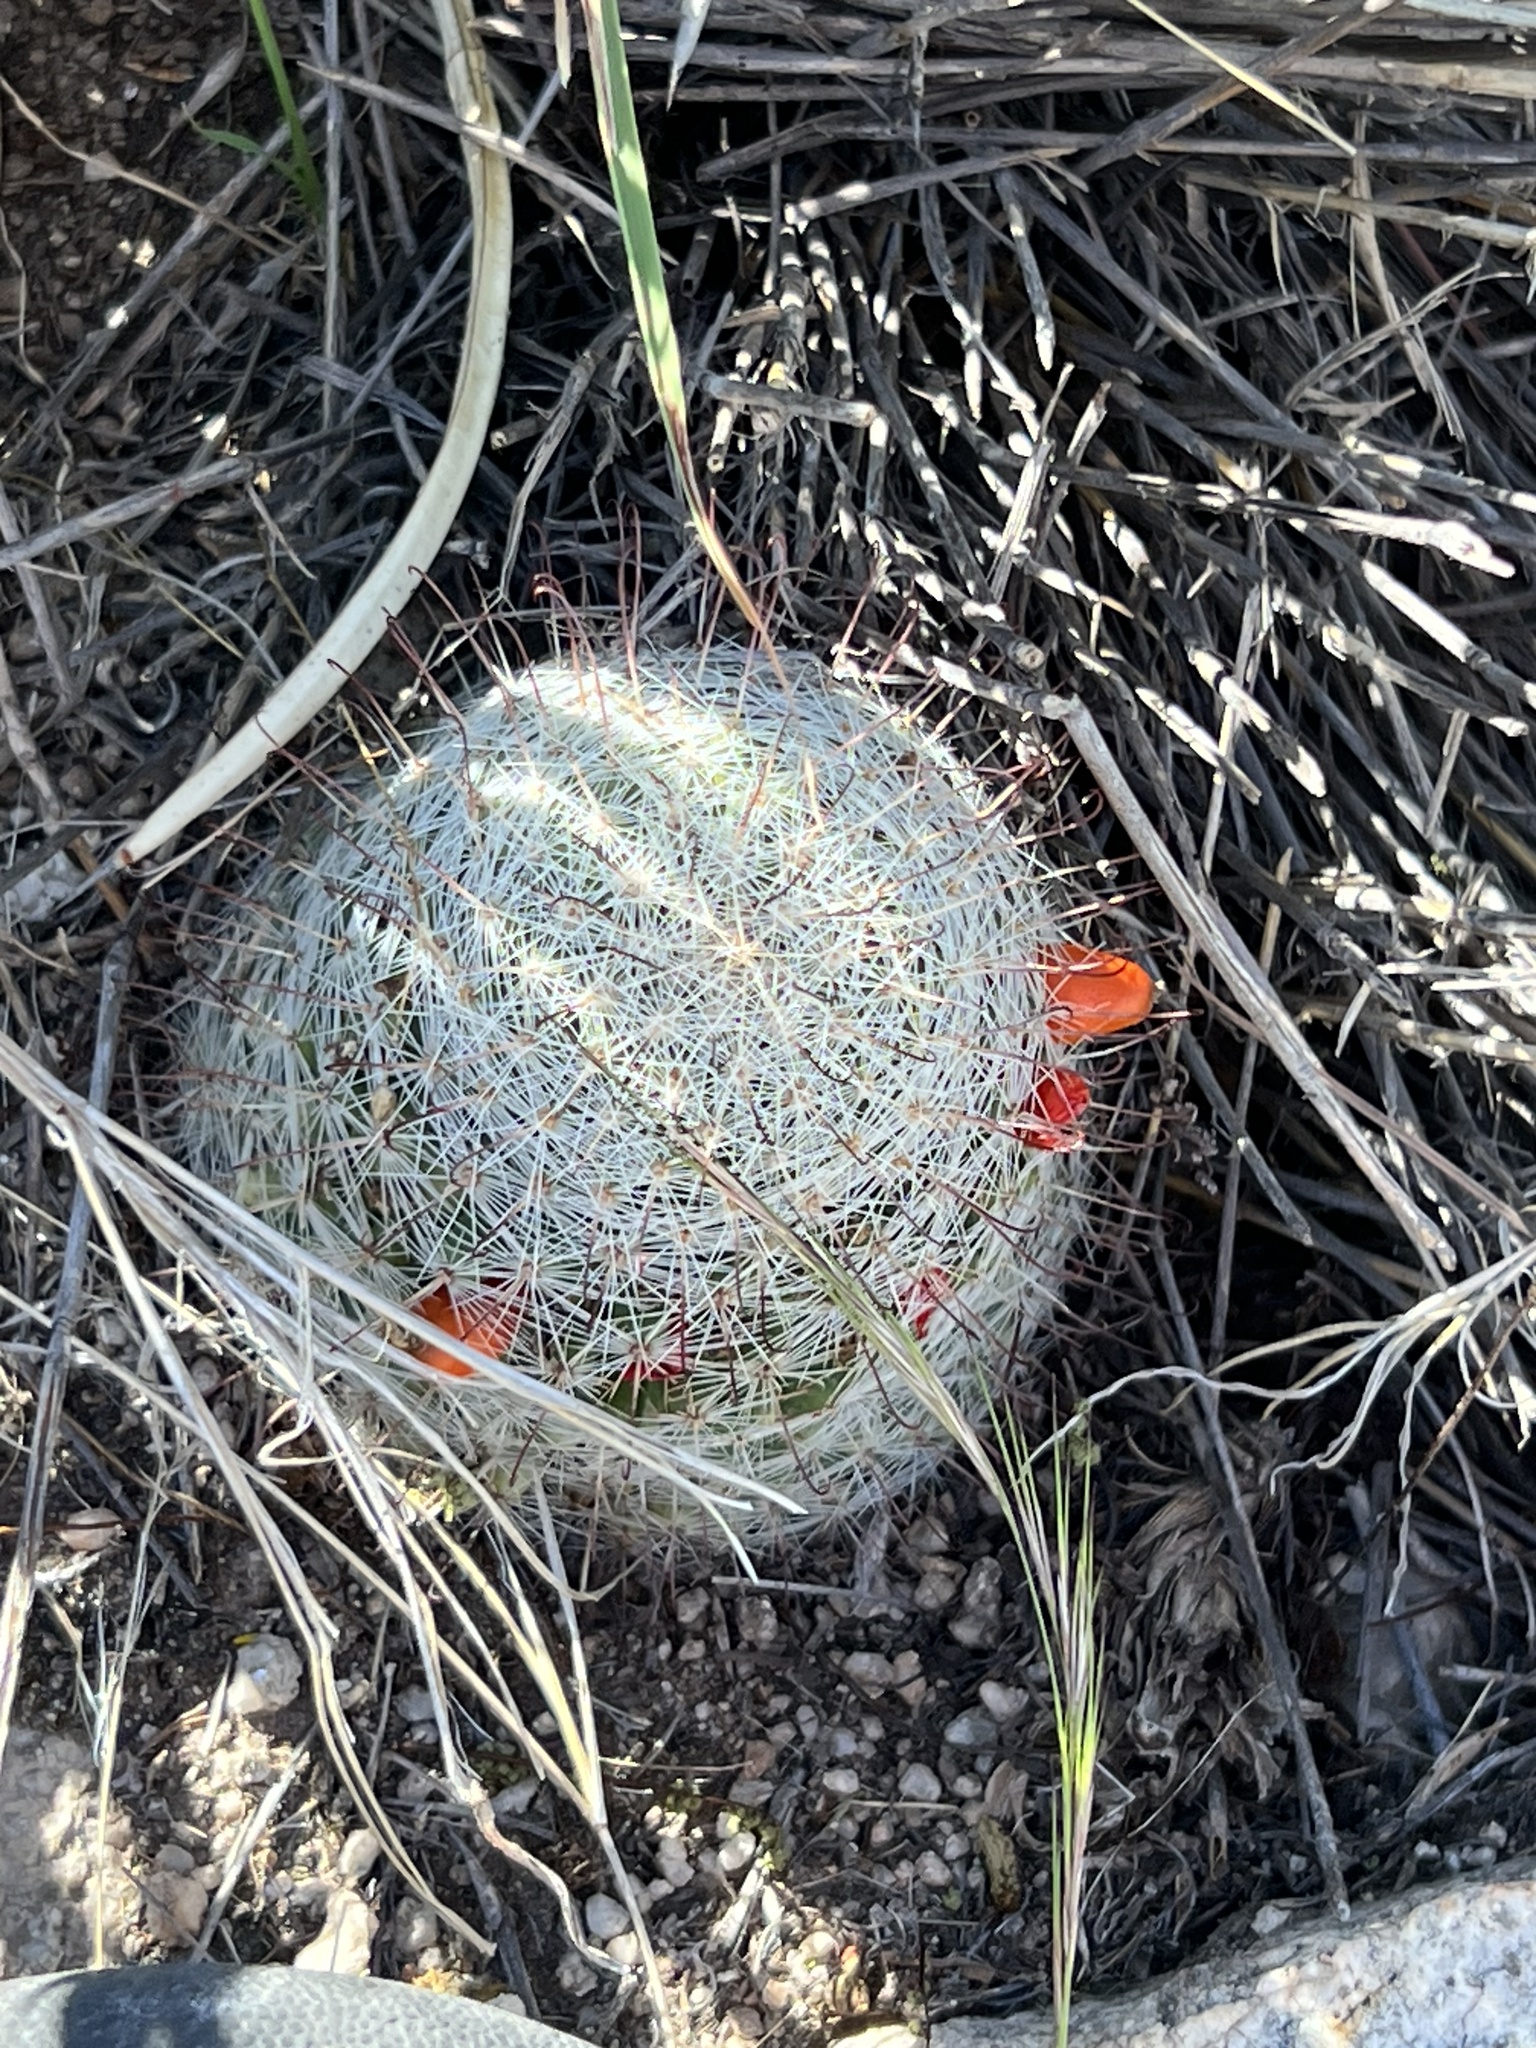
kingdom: Plantae
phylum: Tracheophyta
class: Magnoliopsida
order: Caryophyllales
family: Cactaceae
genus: Cochemiea
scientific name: Cochemiea grahamii
